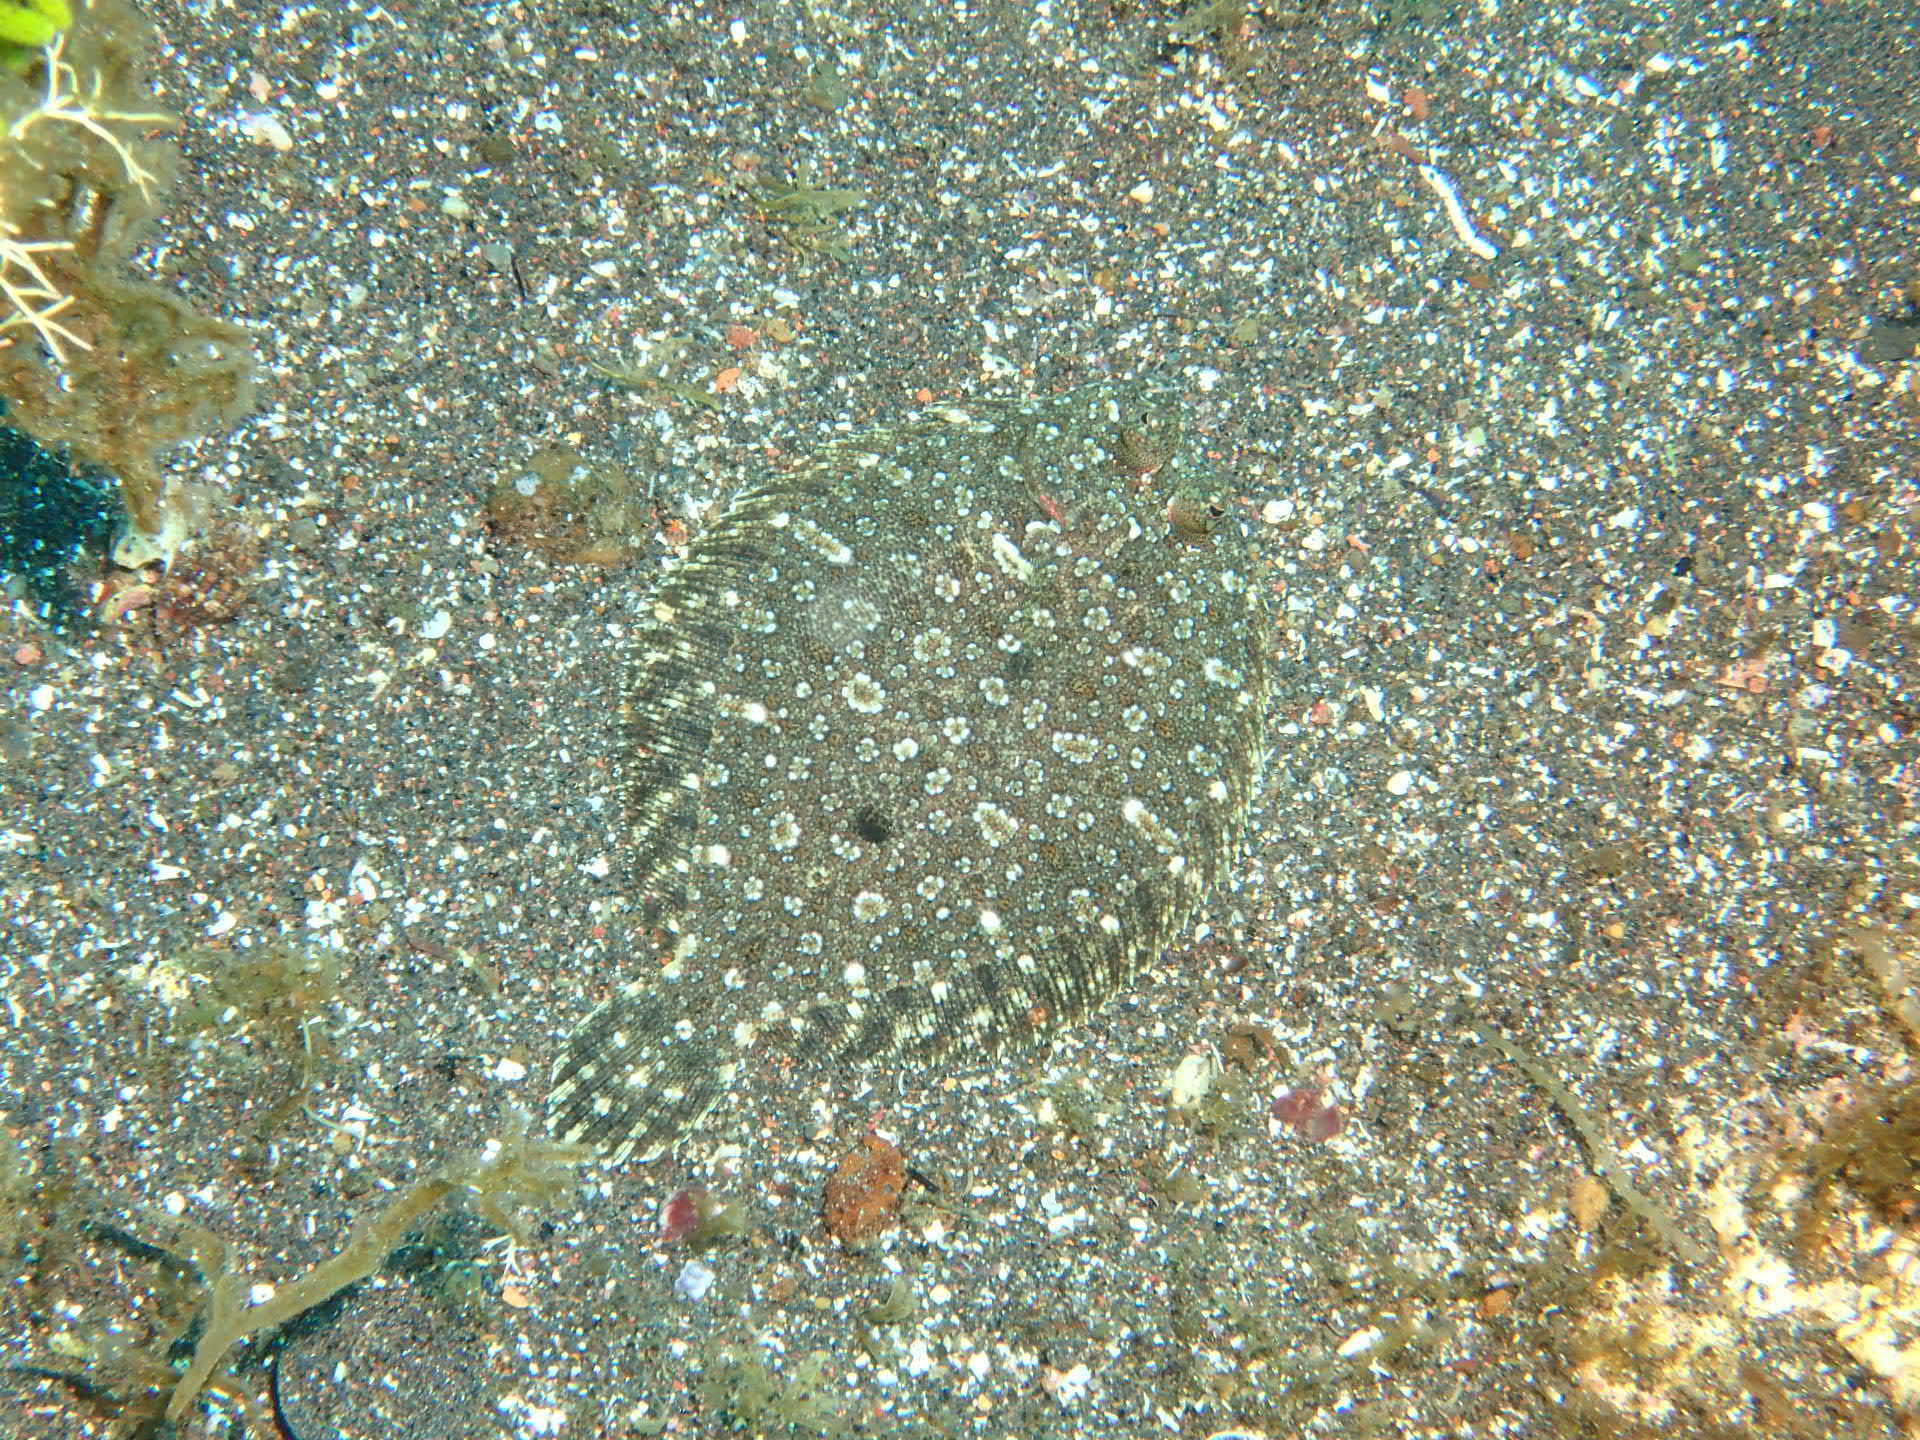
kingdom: Animalia
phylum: Chordata
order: Pleuronectiformes
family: Bothidae
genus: Bothus
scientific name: Bothus podas
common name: Wide-eyed flounder
